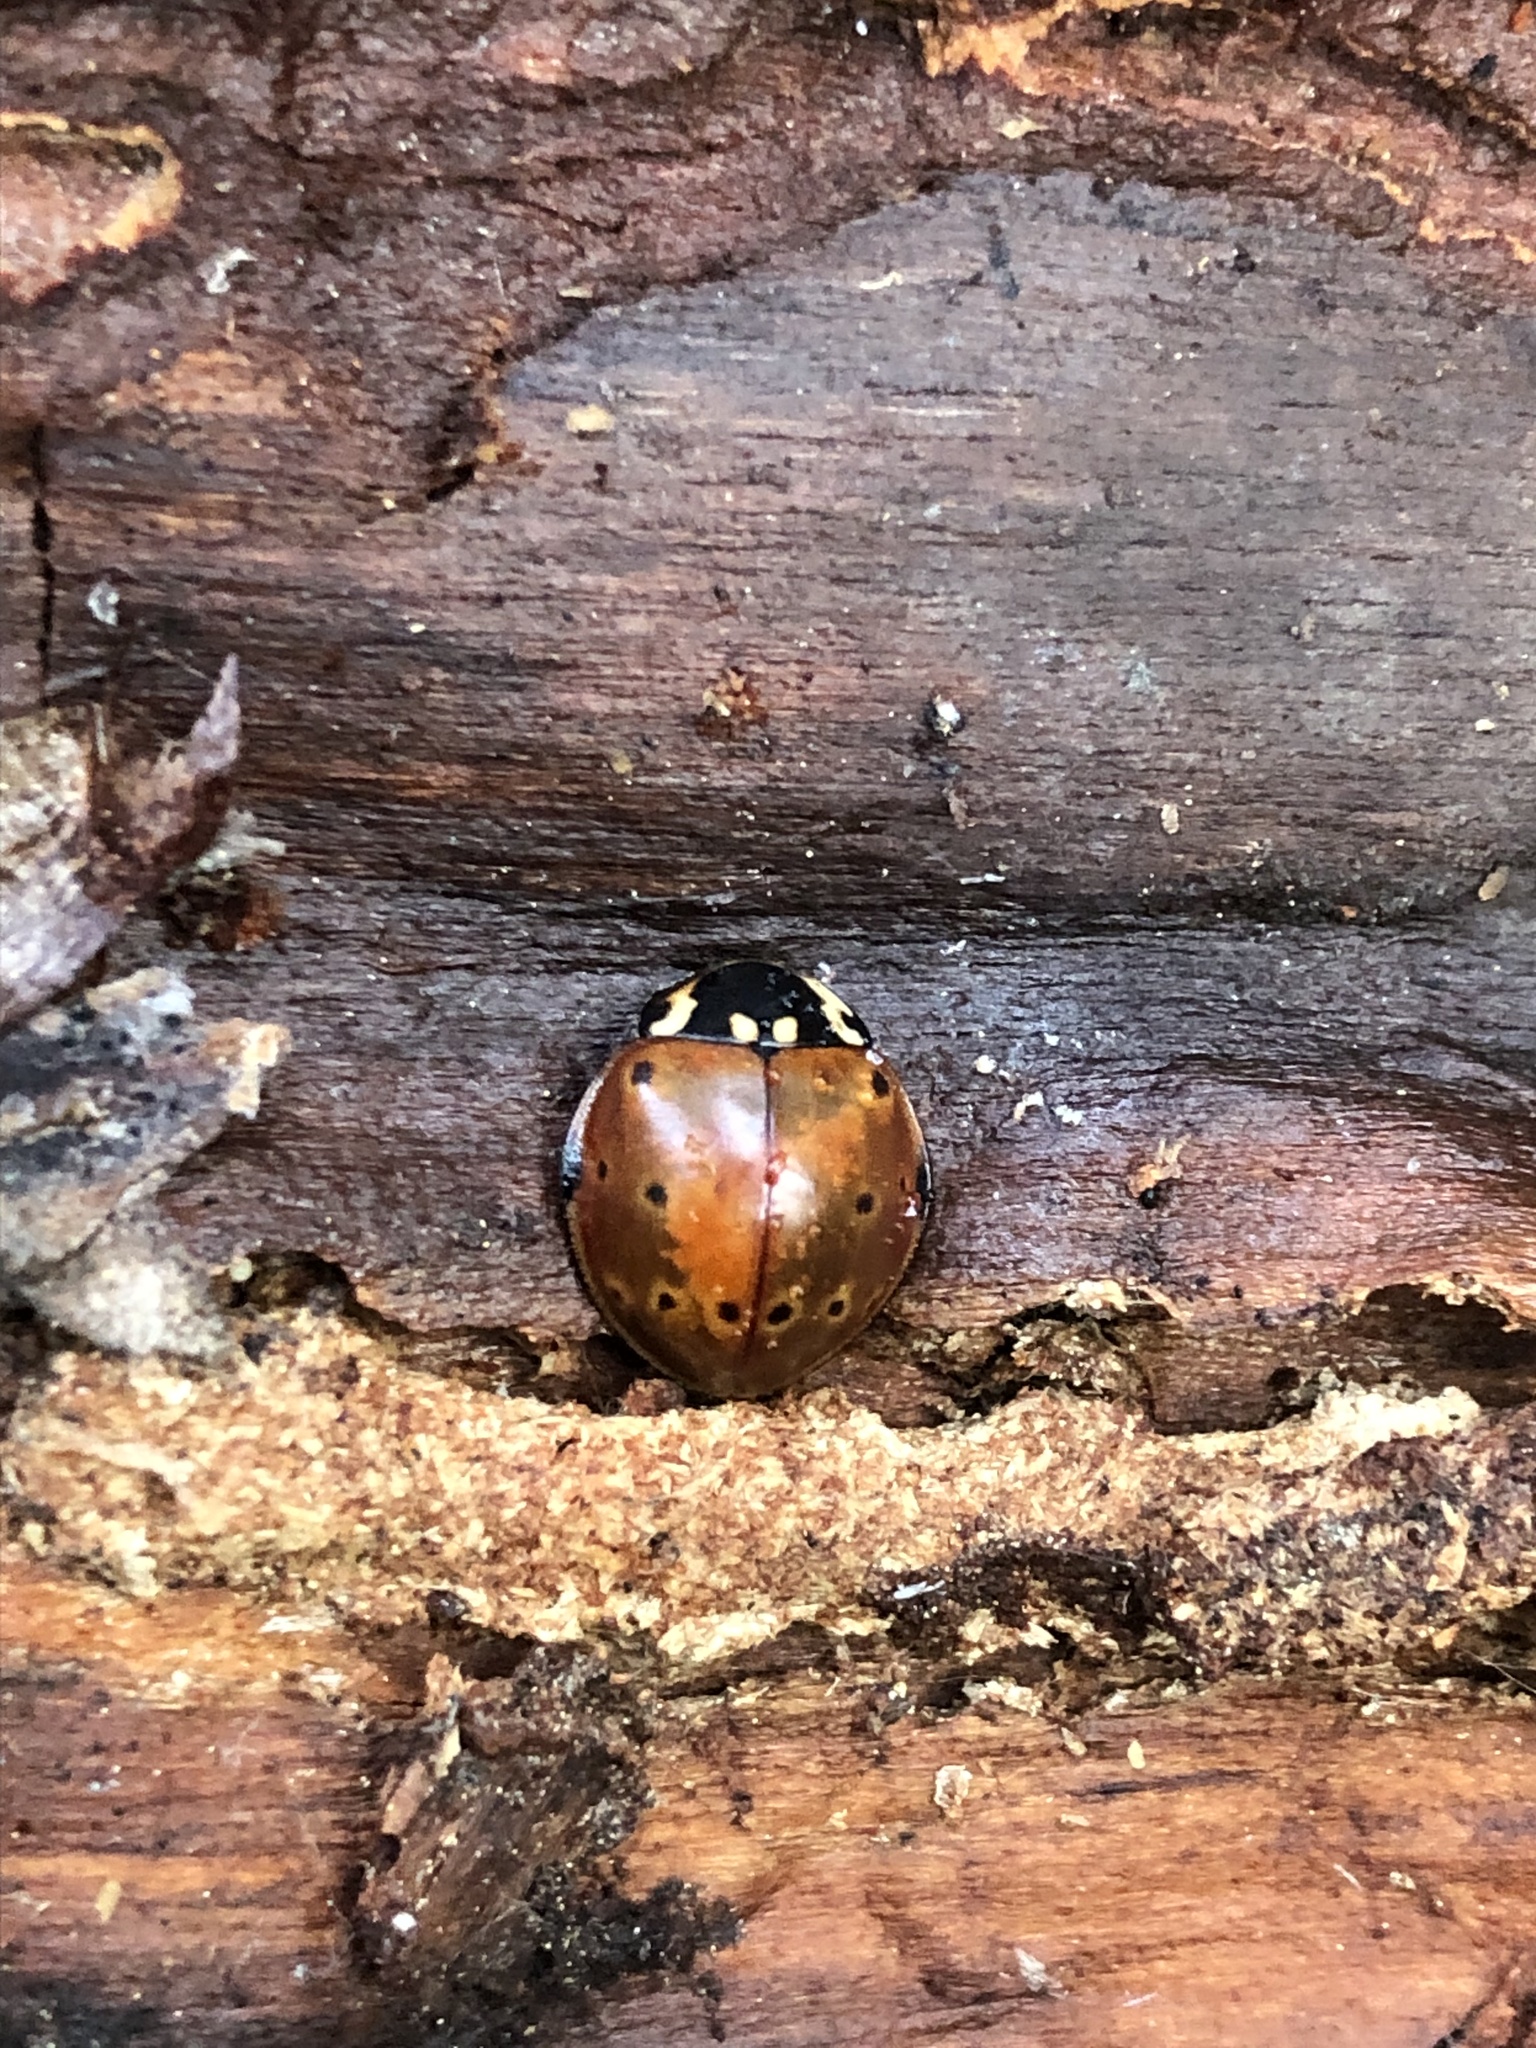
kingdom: Animalia
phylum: Arthropoda
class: Insecta
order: Coleoptera
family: Coccinellidae
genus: Anatis
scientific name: Anatis rathvoni
